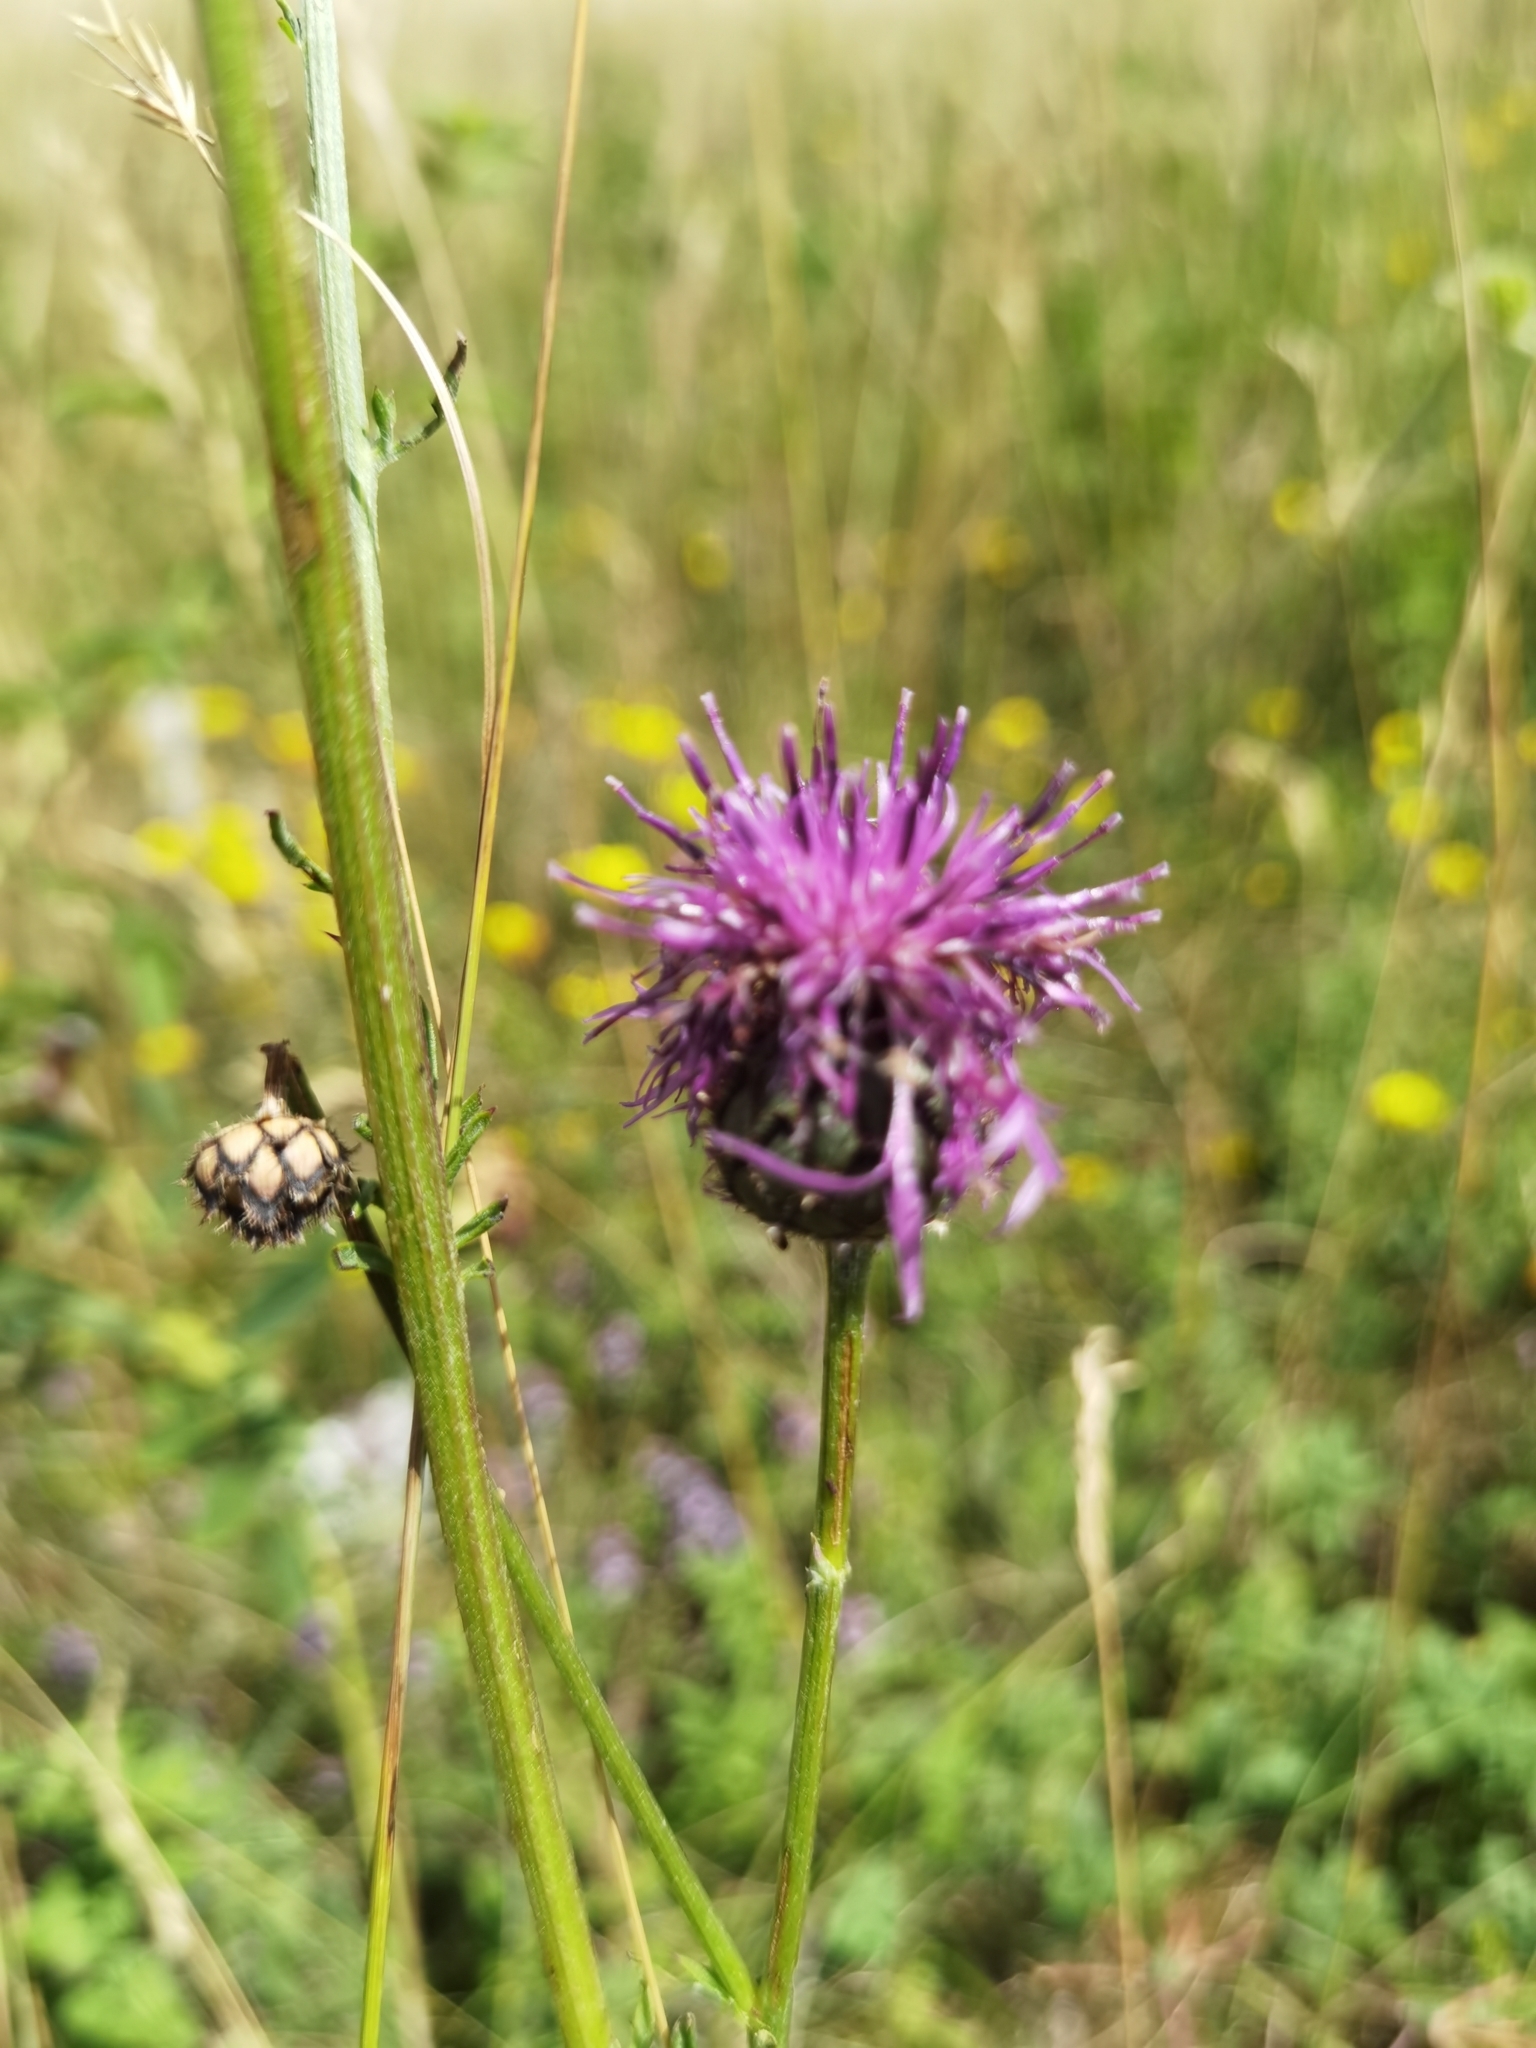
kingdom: Plantae
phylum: Tracheophyta
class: Magnoliopsida
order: Asterales
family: Asteraceae
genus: Centaurea
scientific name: Centaurea scabiosa
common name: Greater knapweed
